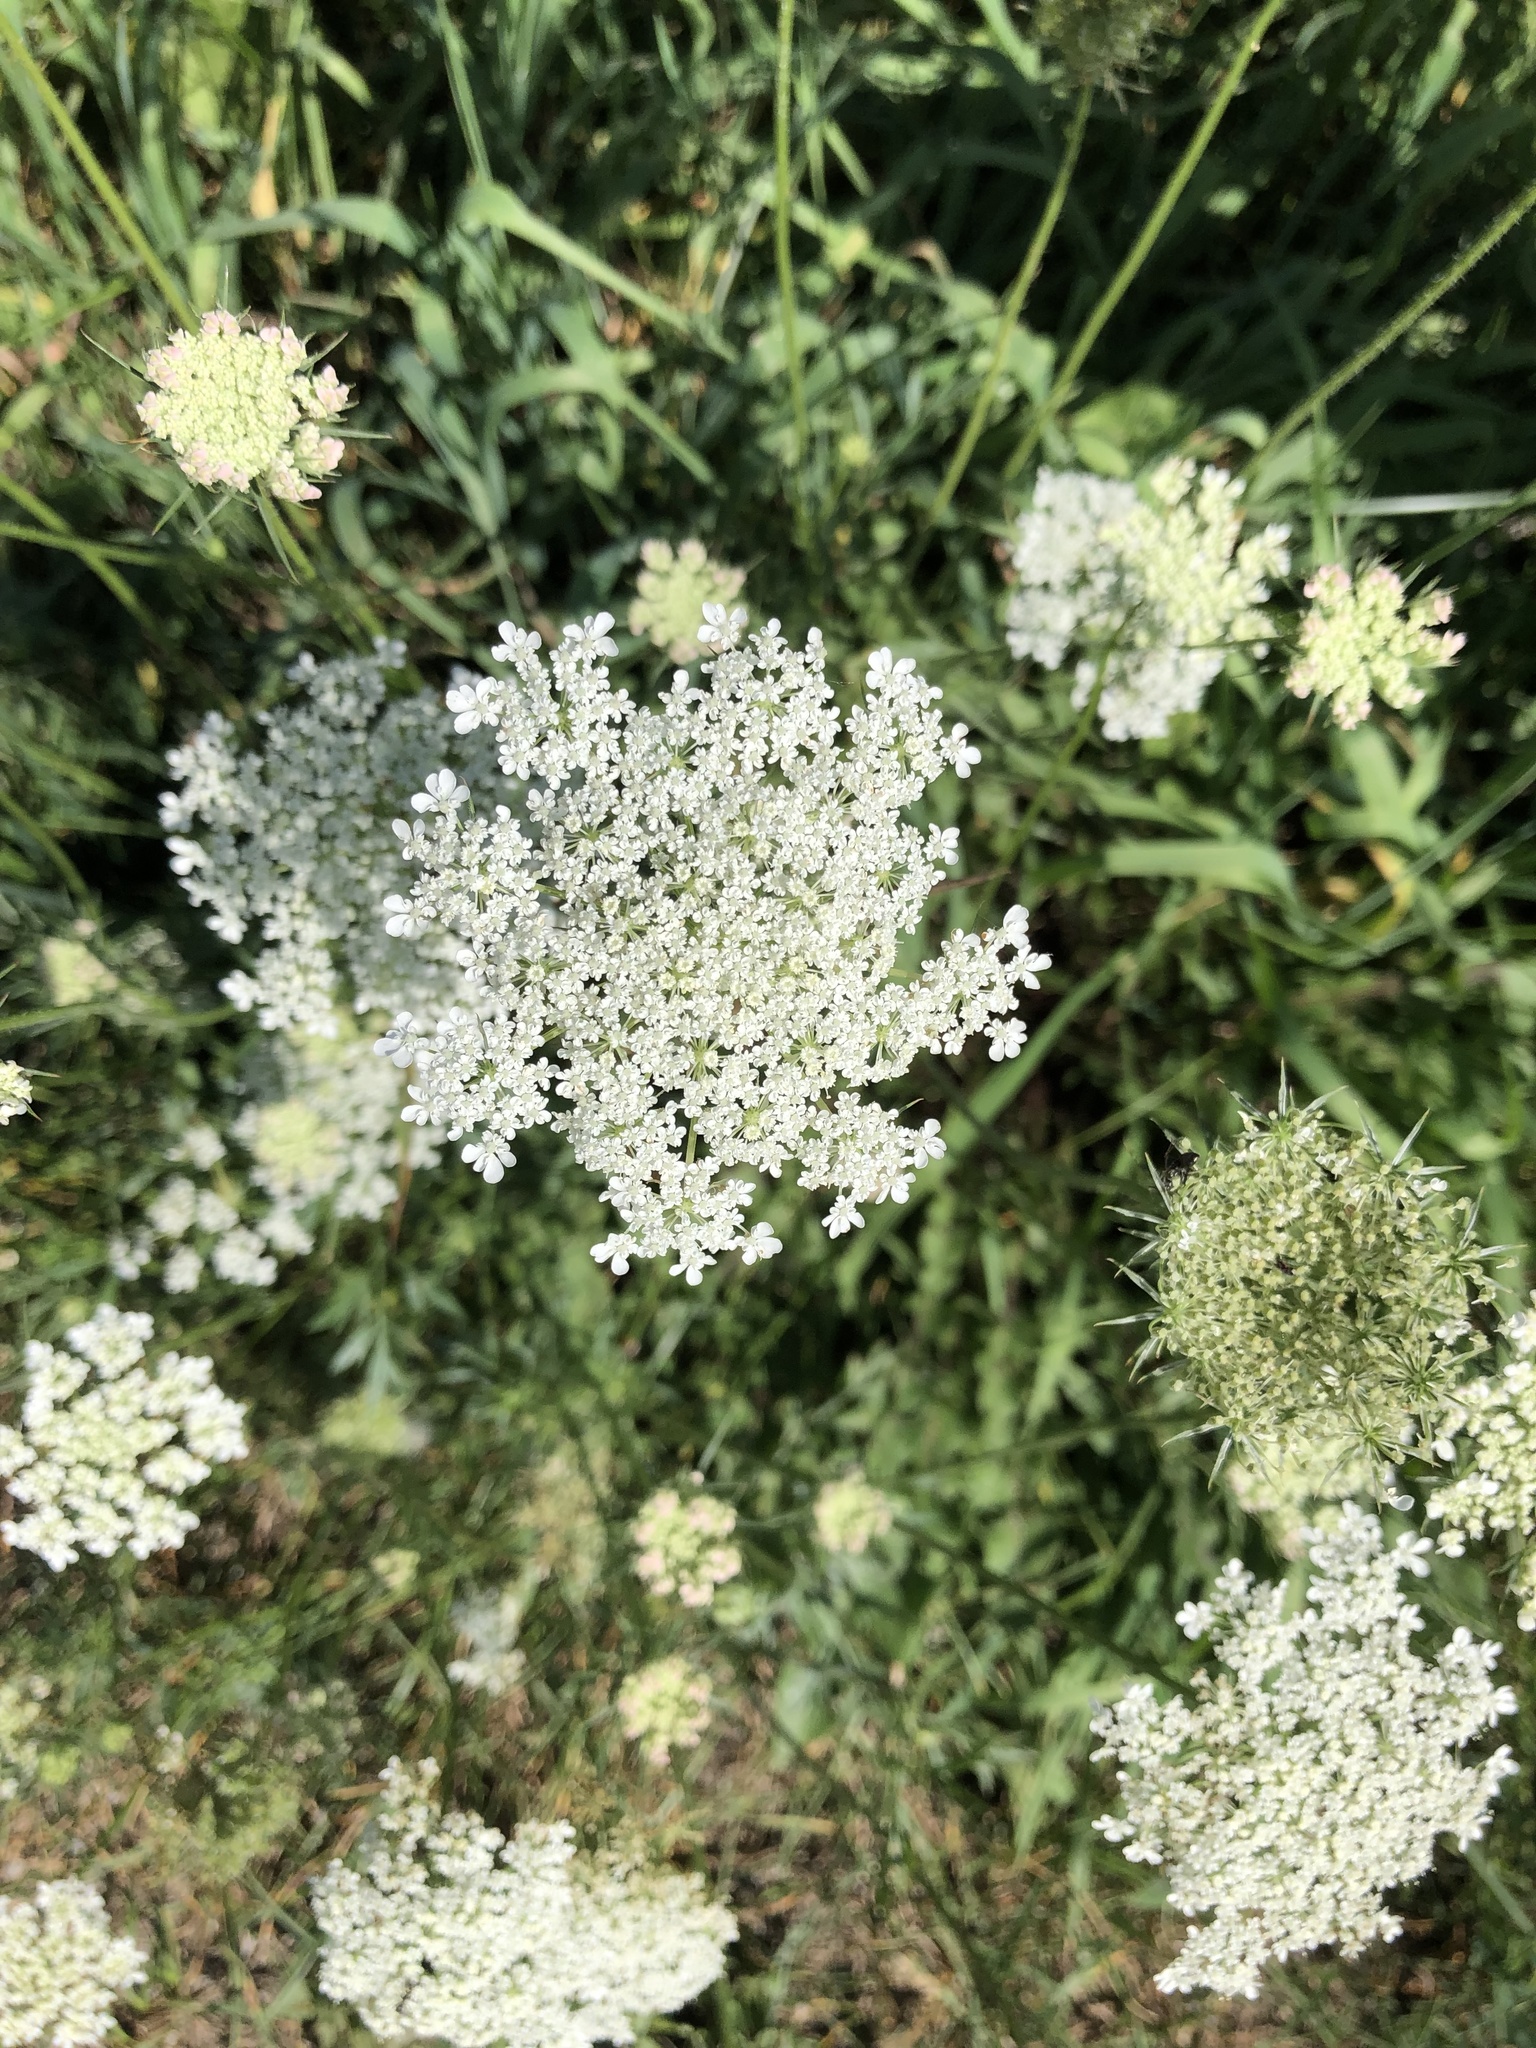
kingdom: Plantae
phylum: Tracheophyta
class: Magnoliopsida
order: Apiales
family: Apiaceae
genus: Daucus
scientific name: Daucus carota
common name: Wild carrot
